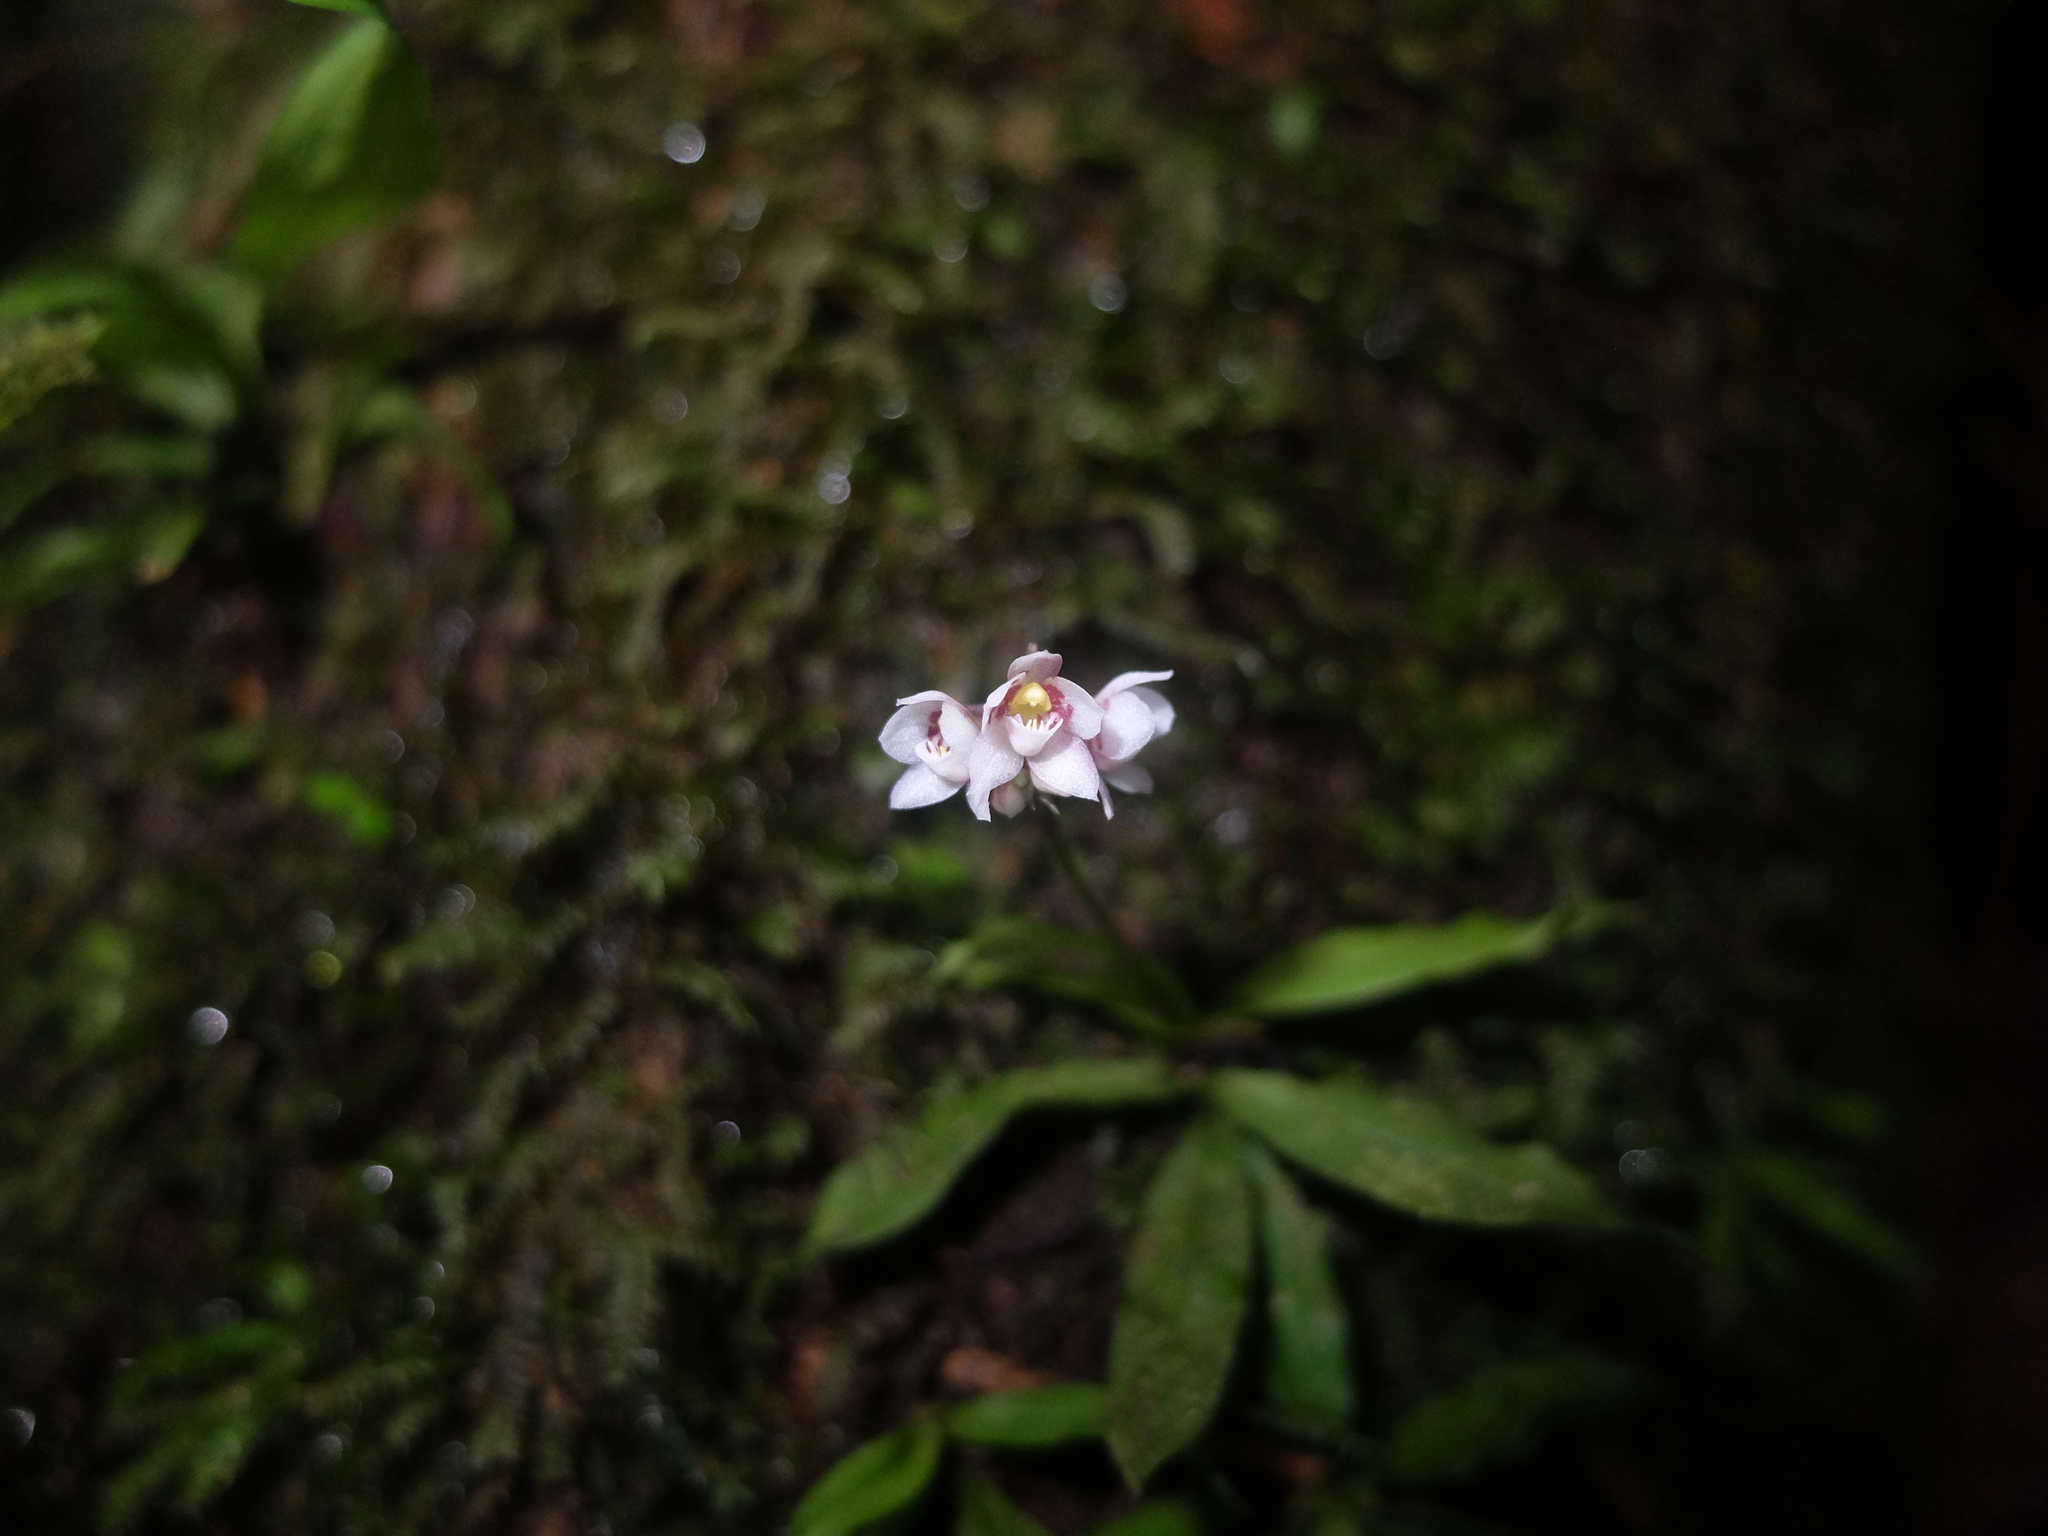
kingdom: Plantae
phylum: Tracheophyta
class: Liliopsida
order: Asparagales
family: Orchidaceae
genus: Cheiradenia
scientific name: Cheiradenia cuspidata
